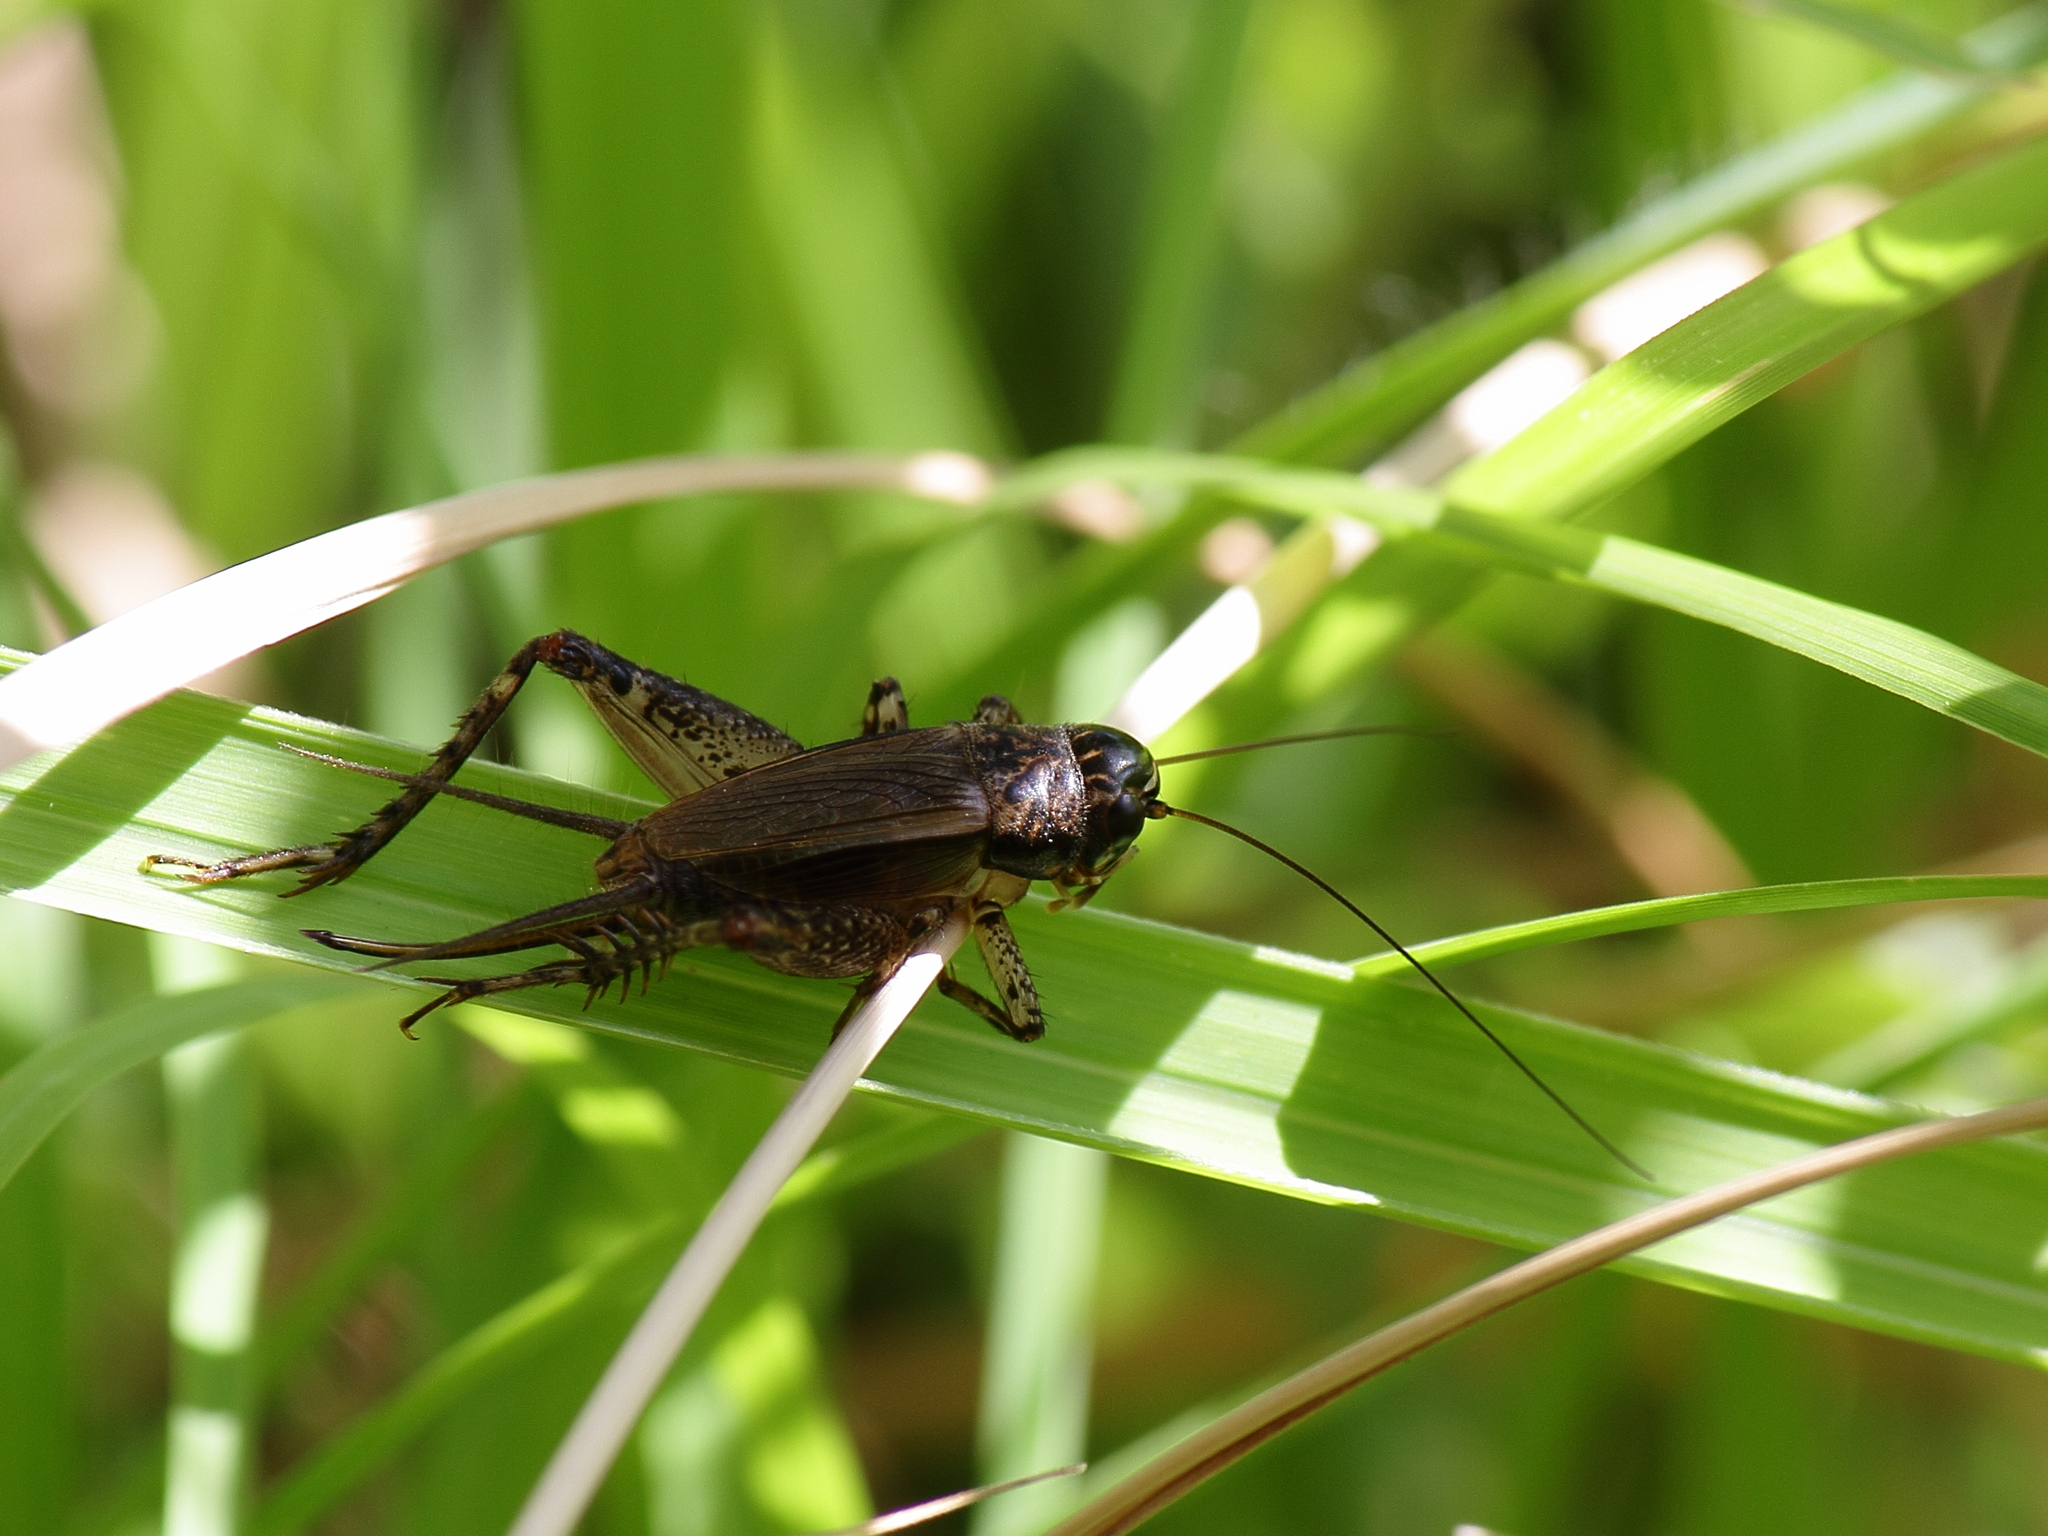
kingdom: Animalia
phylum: Arthropoda
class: Insecta
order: Orthoptera
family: Gryllidae
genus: Loxoblemmus
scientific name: Loxoblemmus sylvestris
